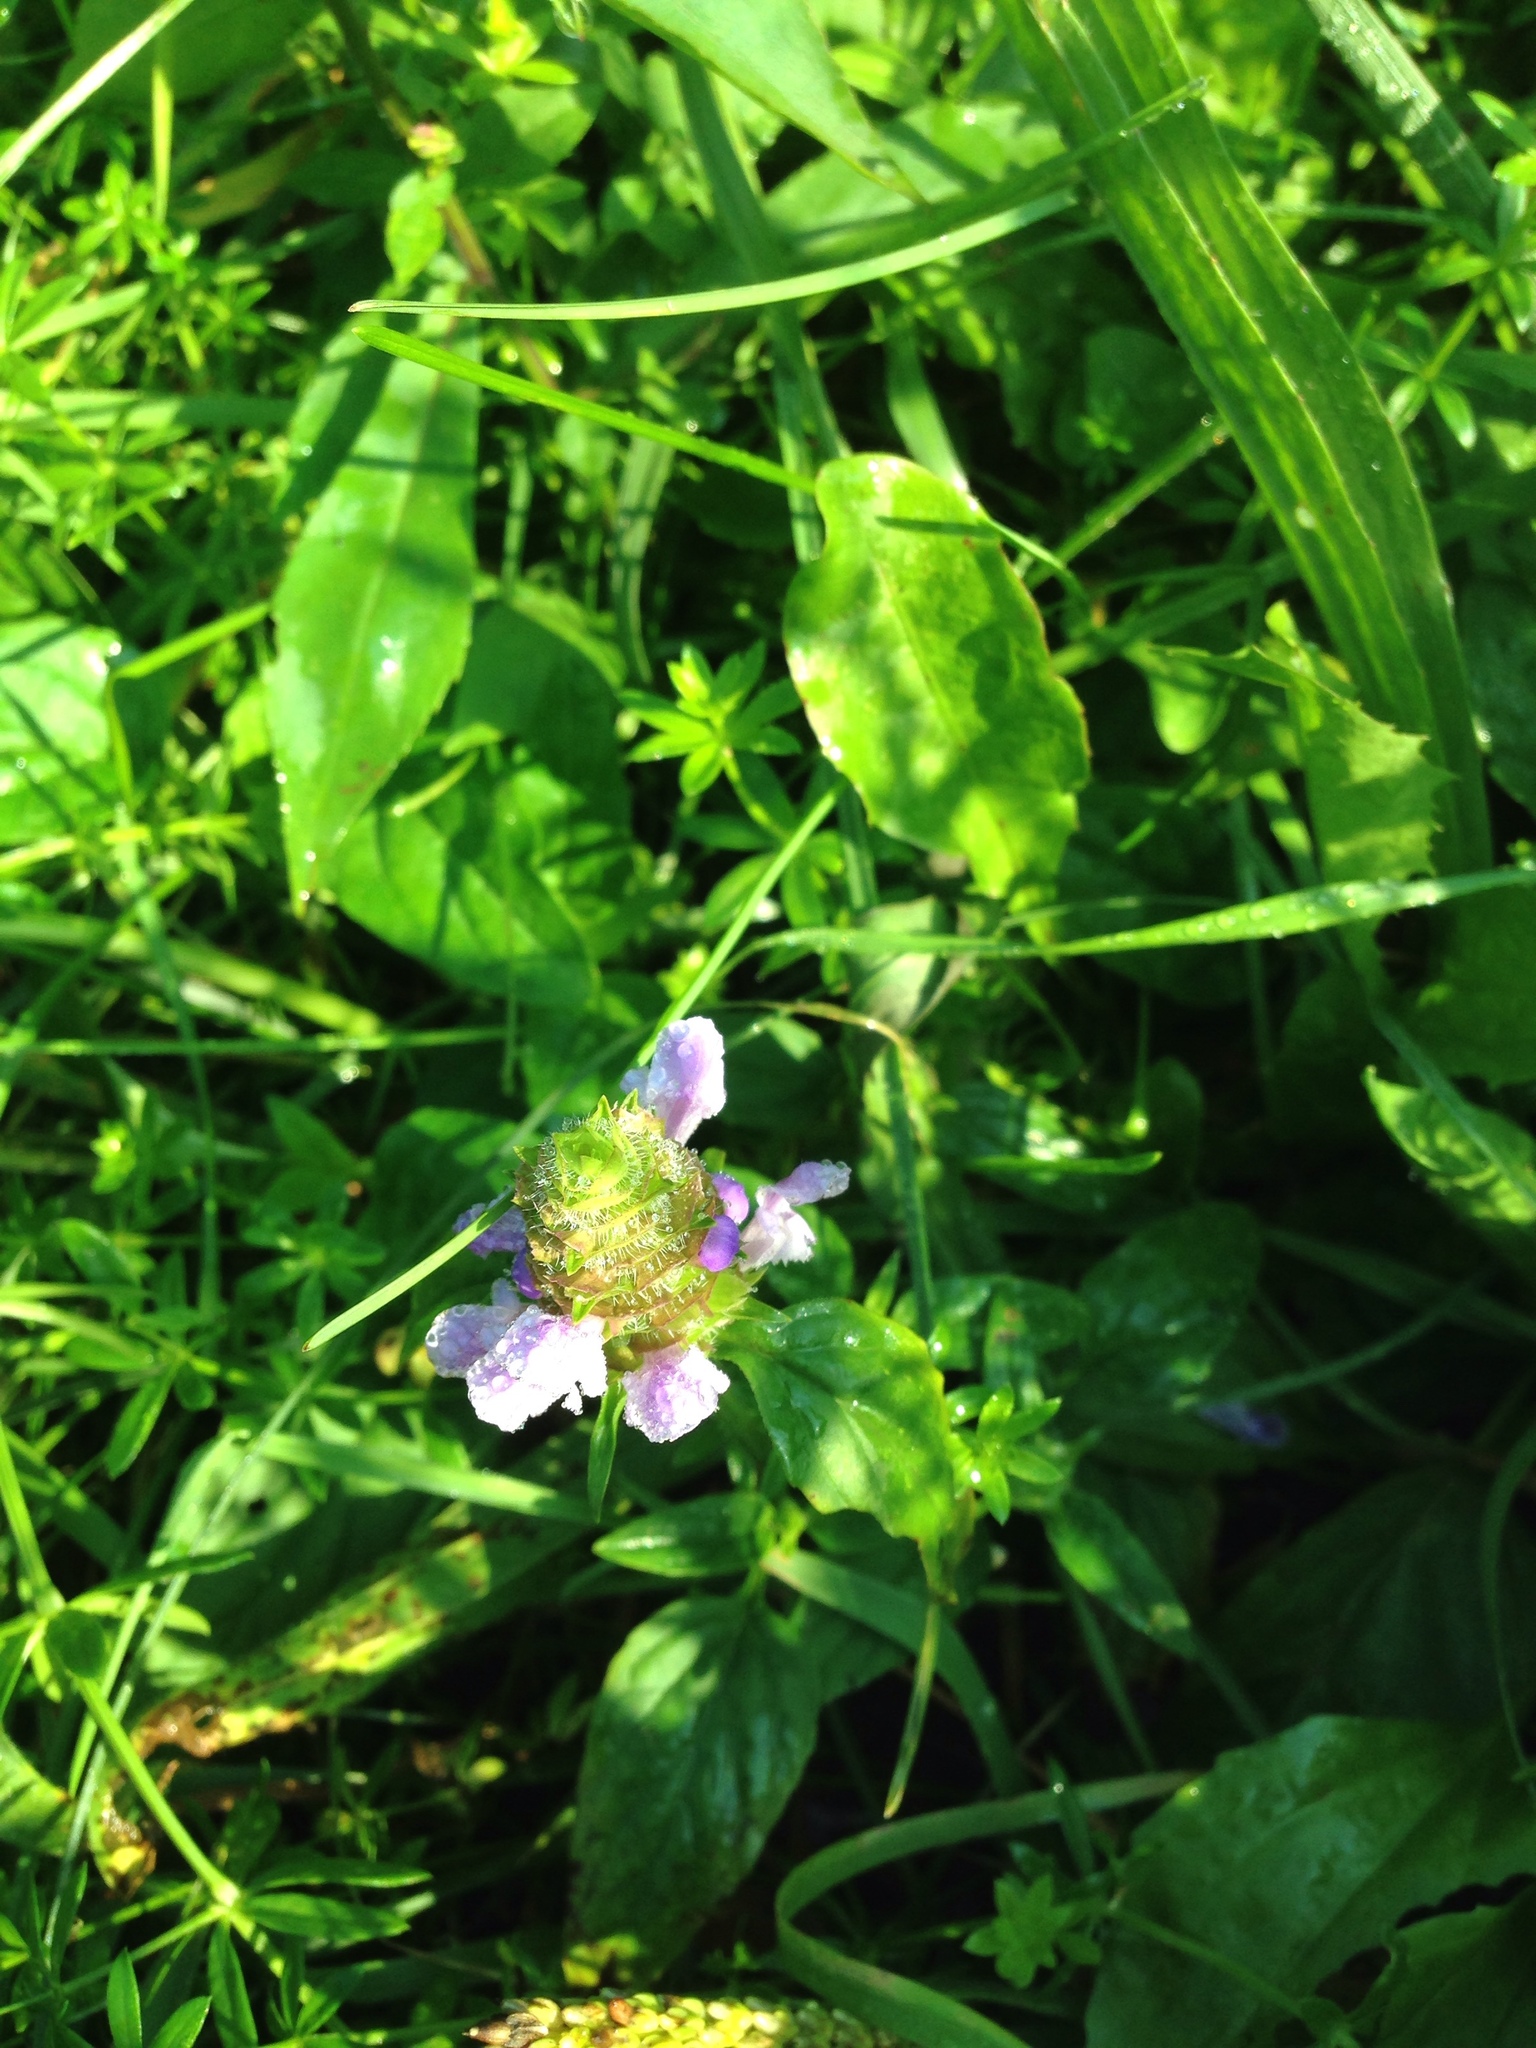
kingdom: Plantae
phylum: Tracheophyta
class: Magnoliopsida
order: Lamiales
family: Lamiaceae
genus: Prunella
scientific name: Prunella vulgaris
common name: Heal-all
